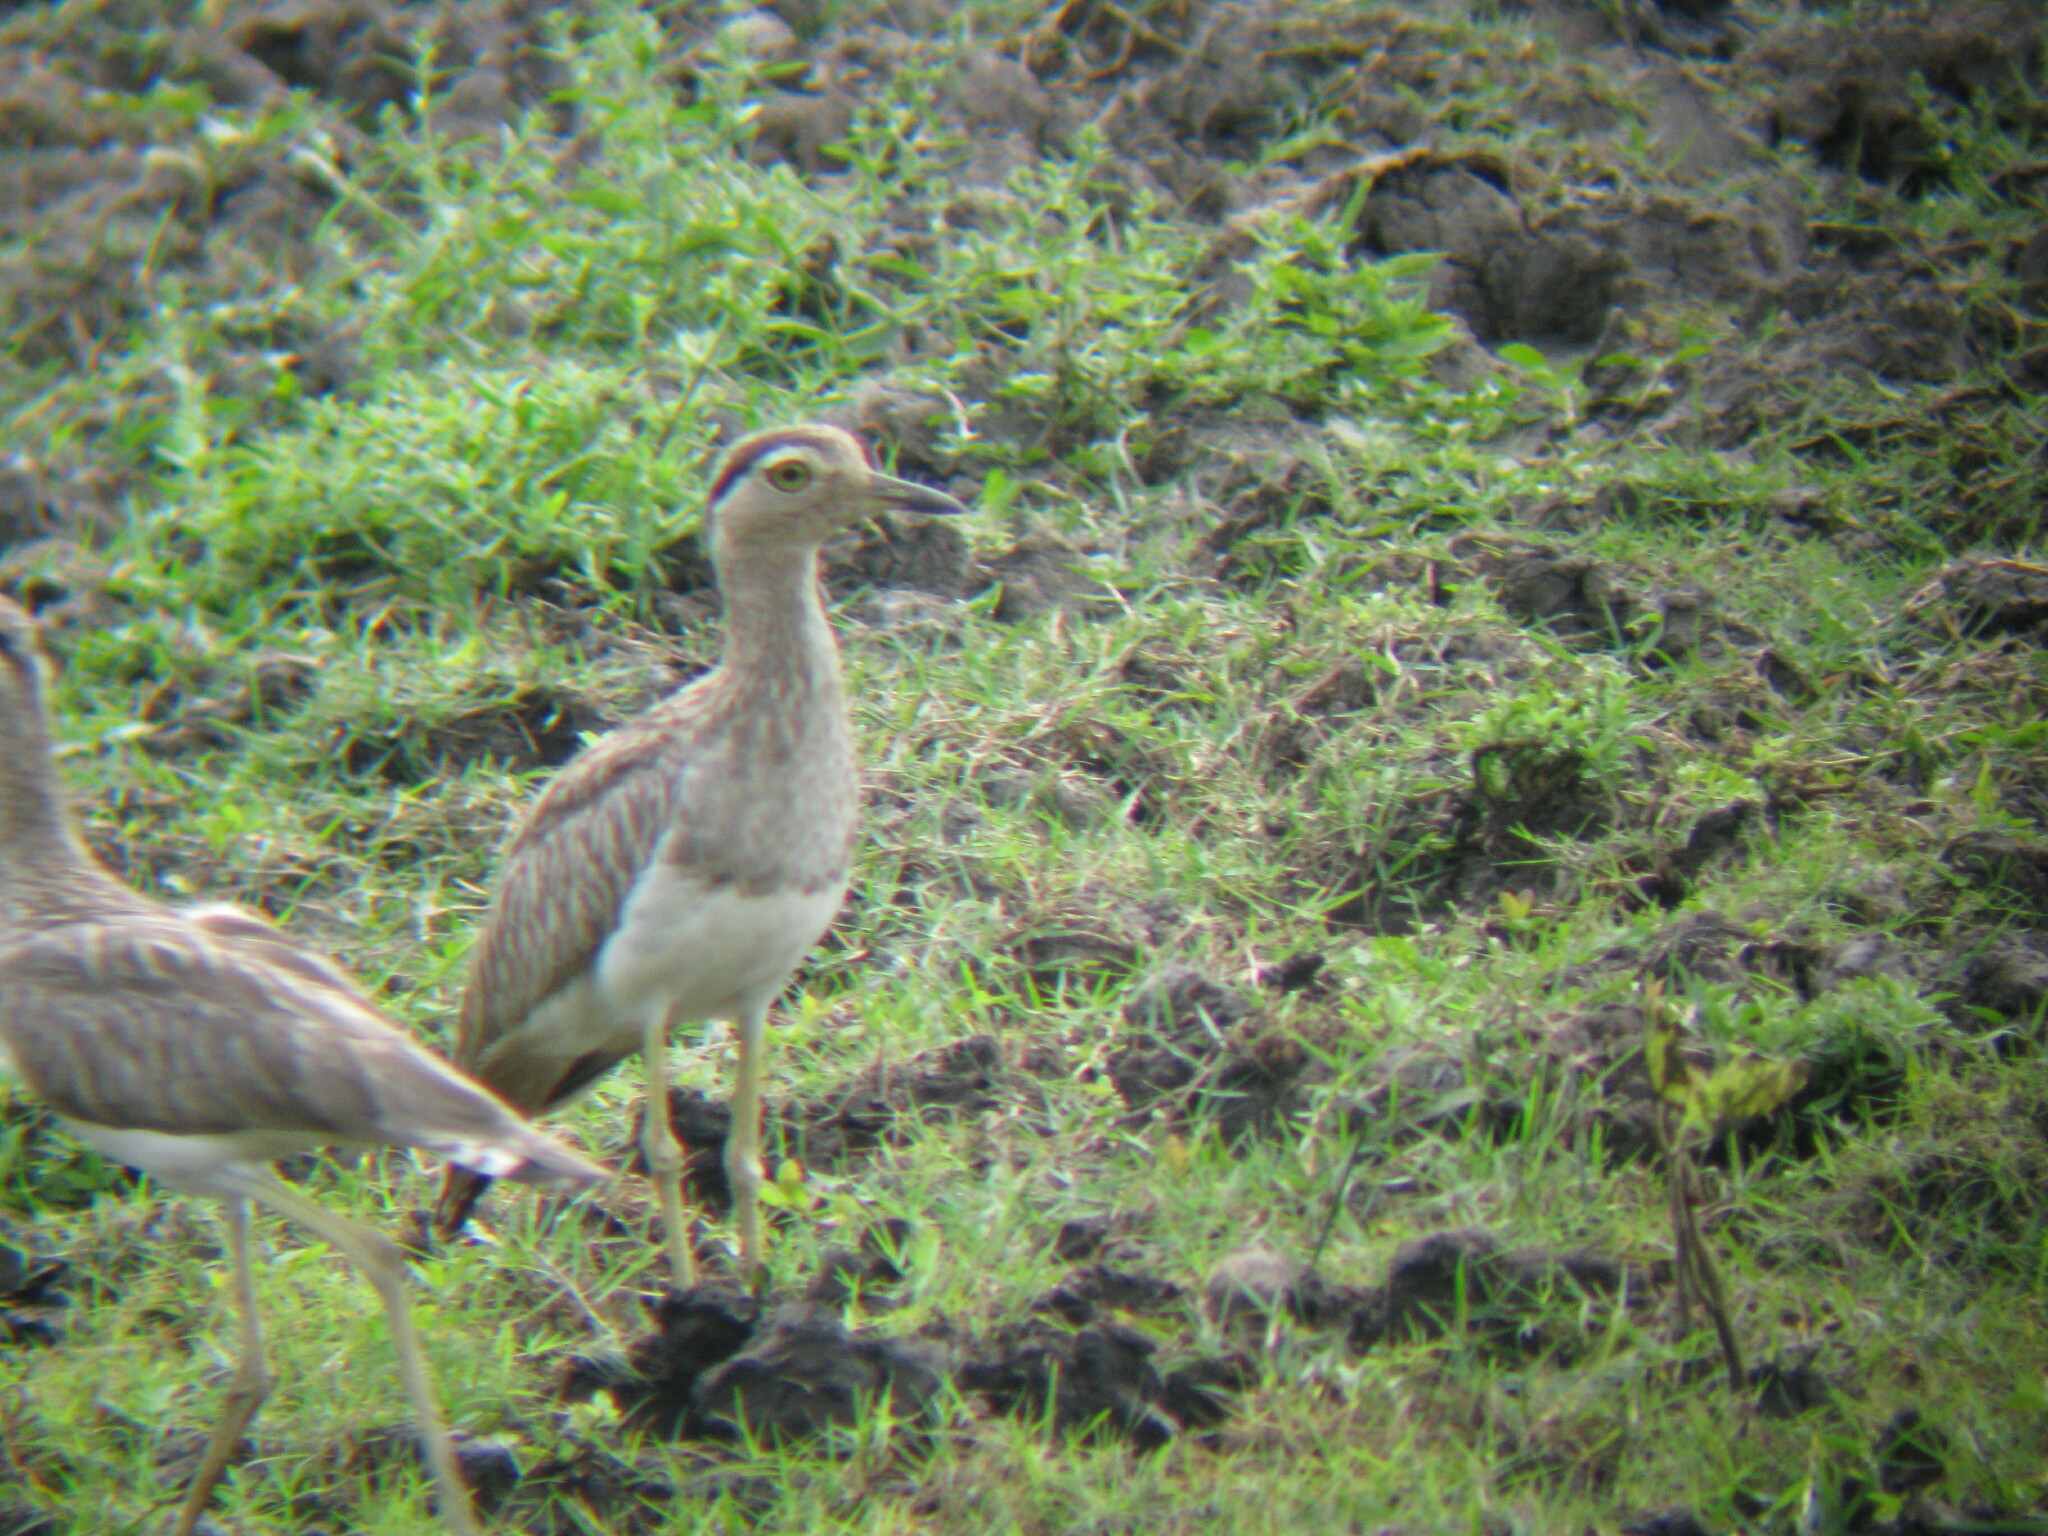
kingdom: Animalia
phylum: Chordata
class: Aves
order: Charadriiformes
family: Burhinidae
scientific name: Burhinidae
